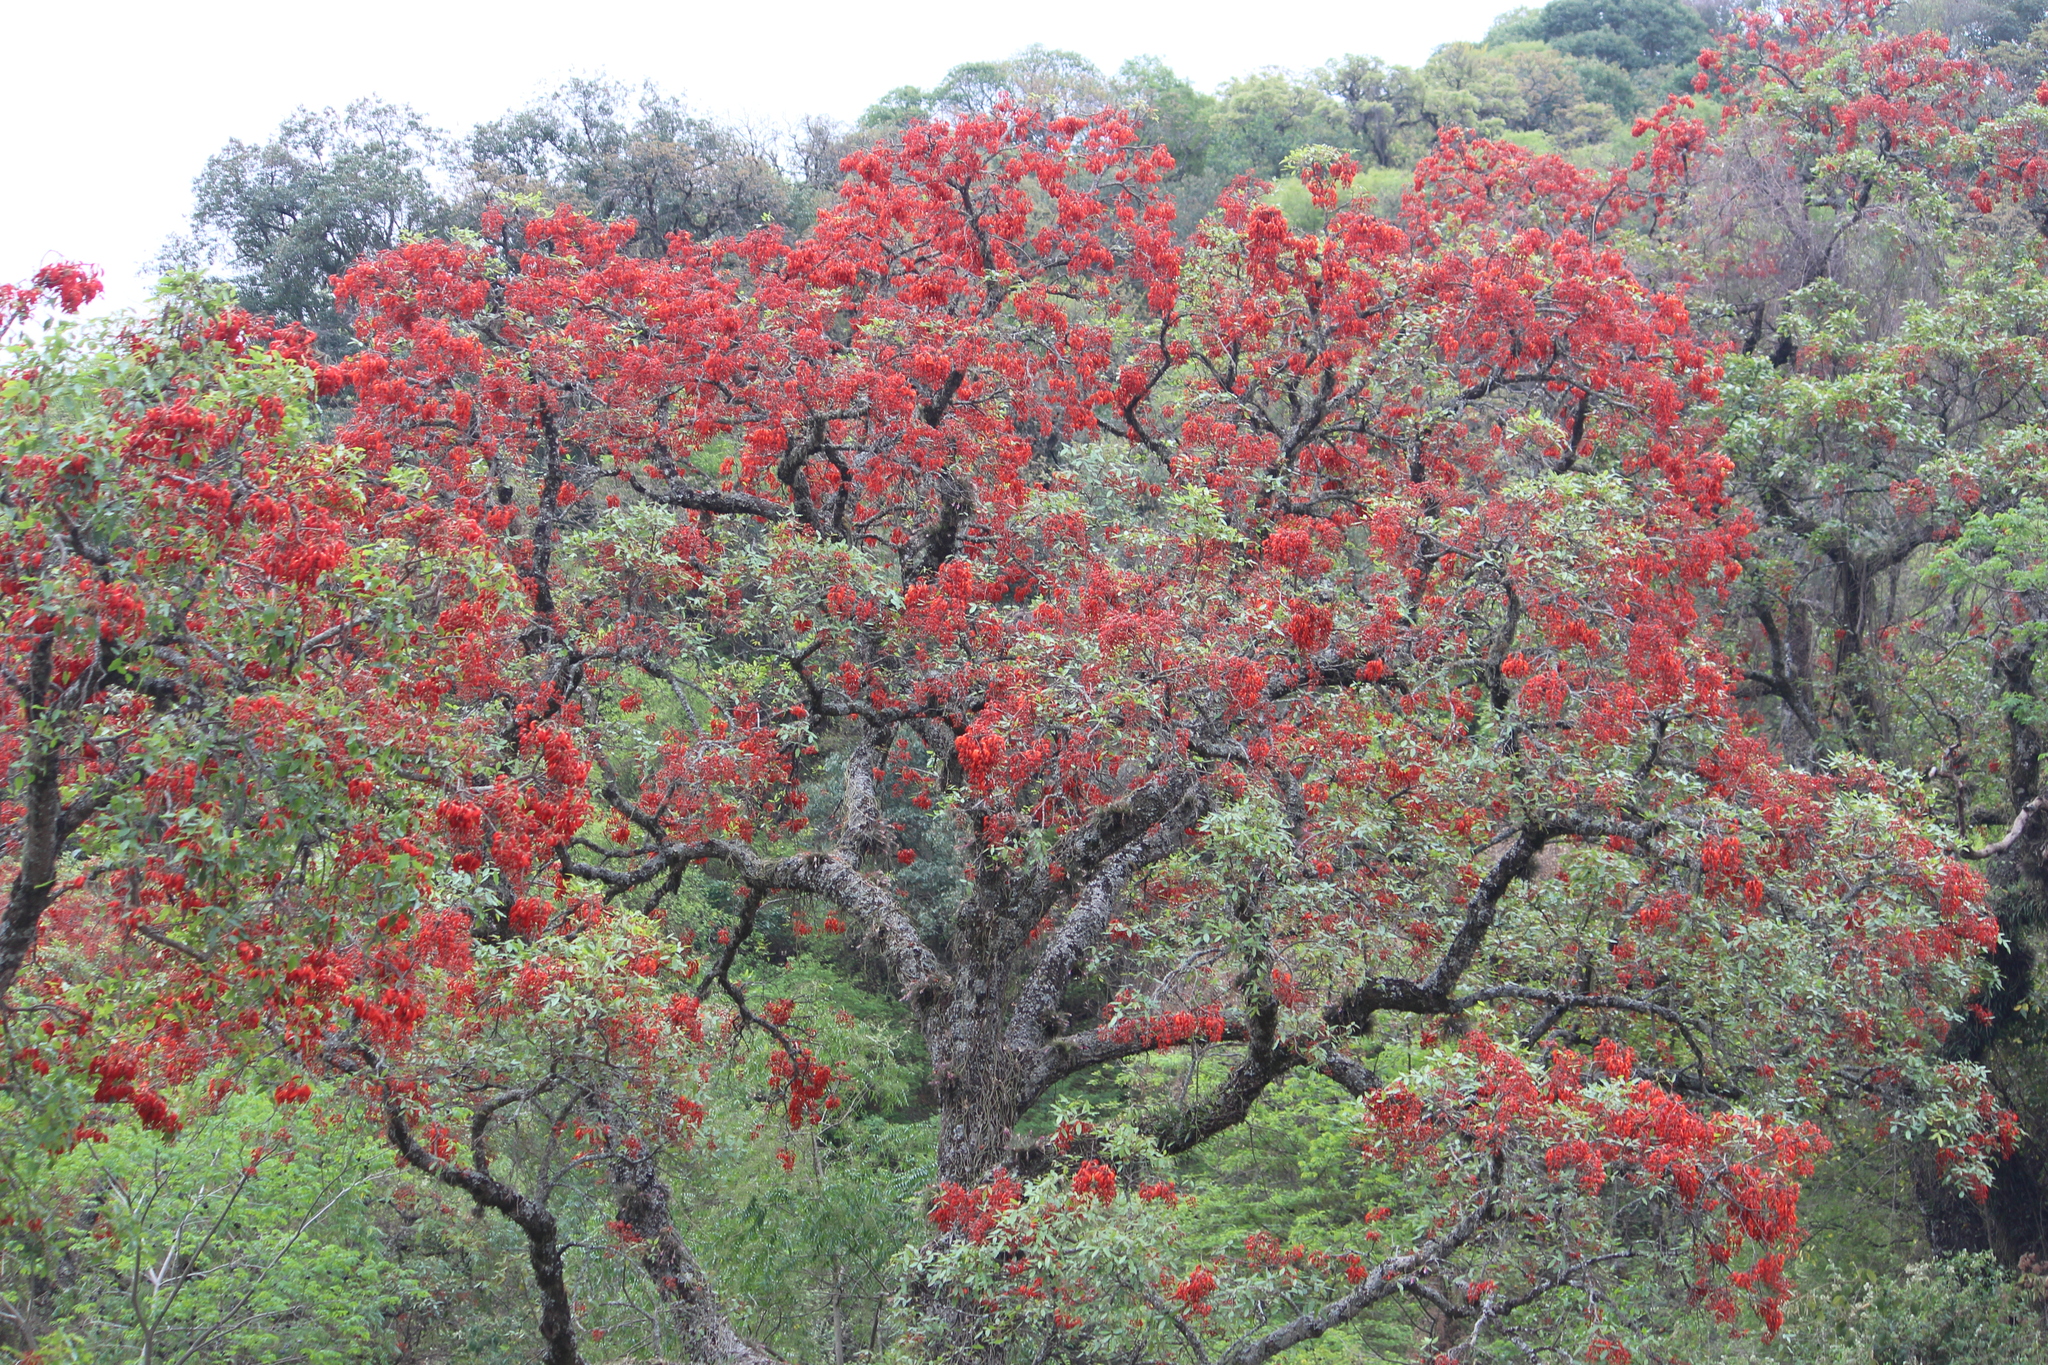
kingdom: Plantae
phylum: Tracheophyta
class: Magnoliopsida
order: Fabales
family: Fabaceae
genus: Erythrina
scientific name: Erythrina falcata
